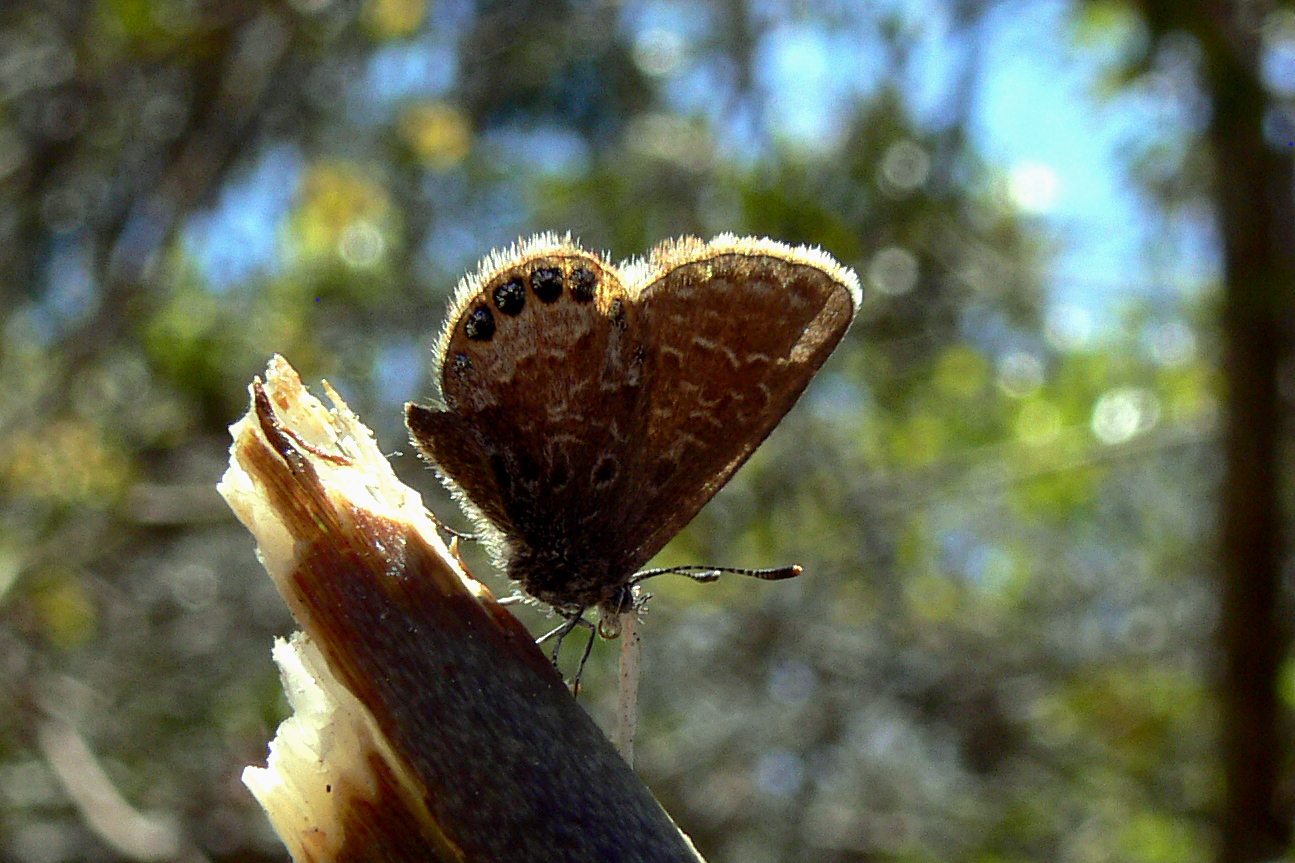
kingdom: Animalia
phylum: Arthropoda
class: Insecta
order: Lepidoptera
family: Lycaenidae
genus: Brephidium
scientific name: Brephidium isophthalma
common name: Eastern pygmy-blue
